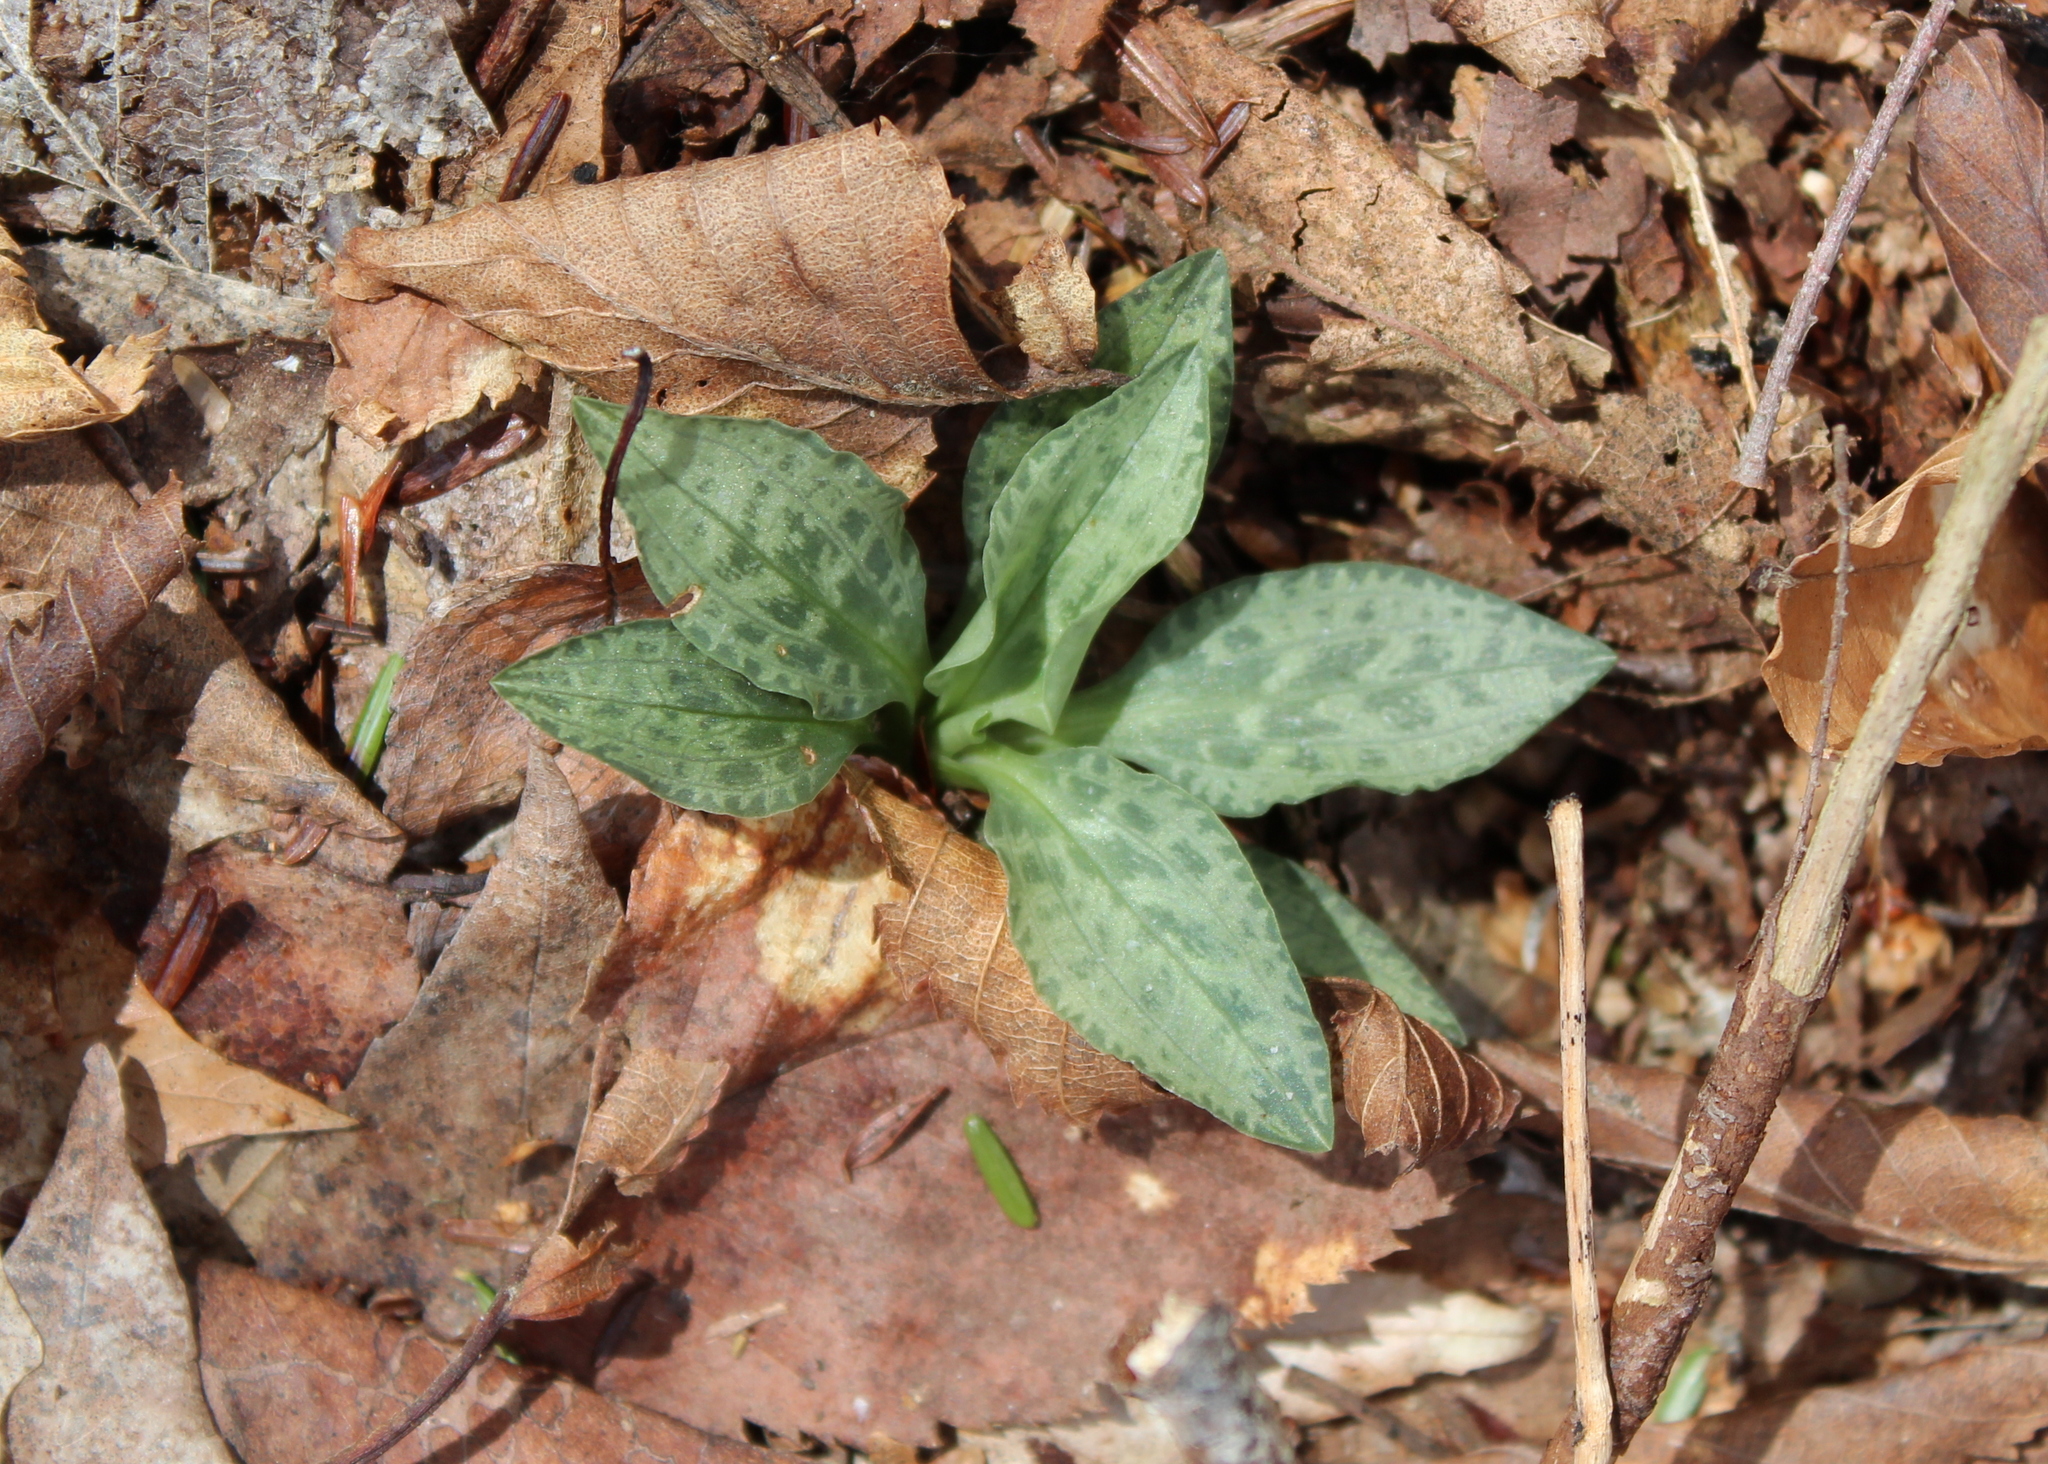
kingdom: Plantae
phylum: Tracheophyta
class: Liliopsida
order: Asparagales
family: Orchidaceae
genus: Goodyera
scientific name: Goodyera tesselata
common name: Checkered rattlesnake-plantain
